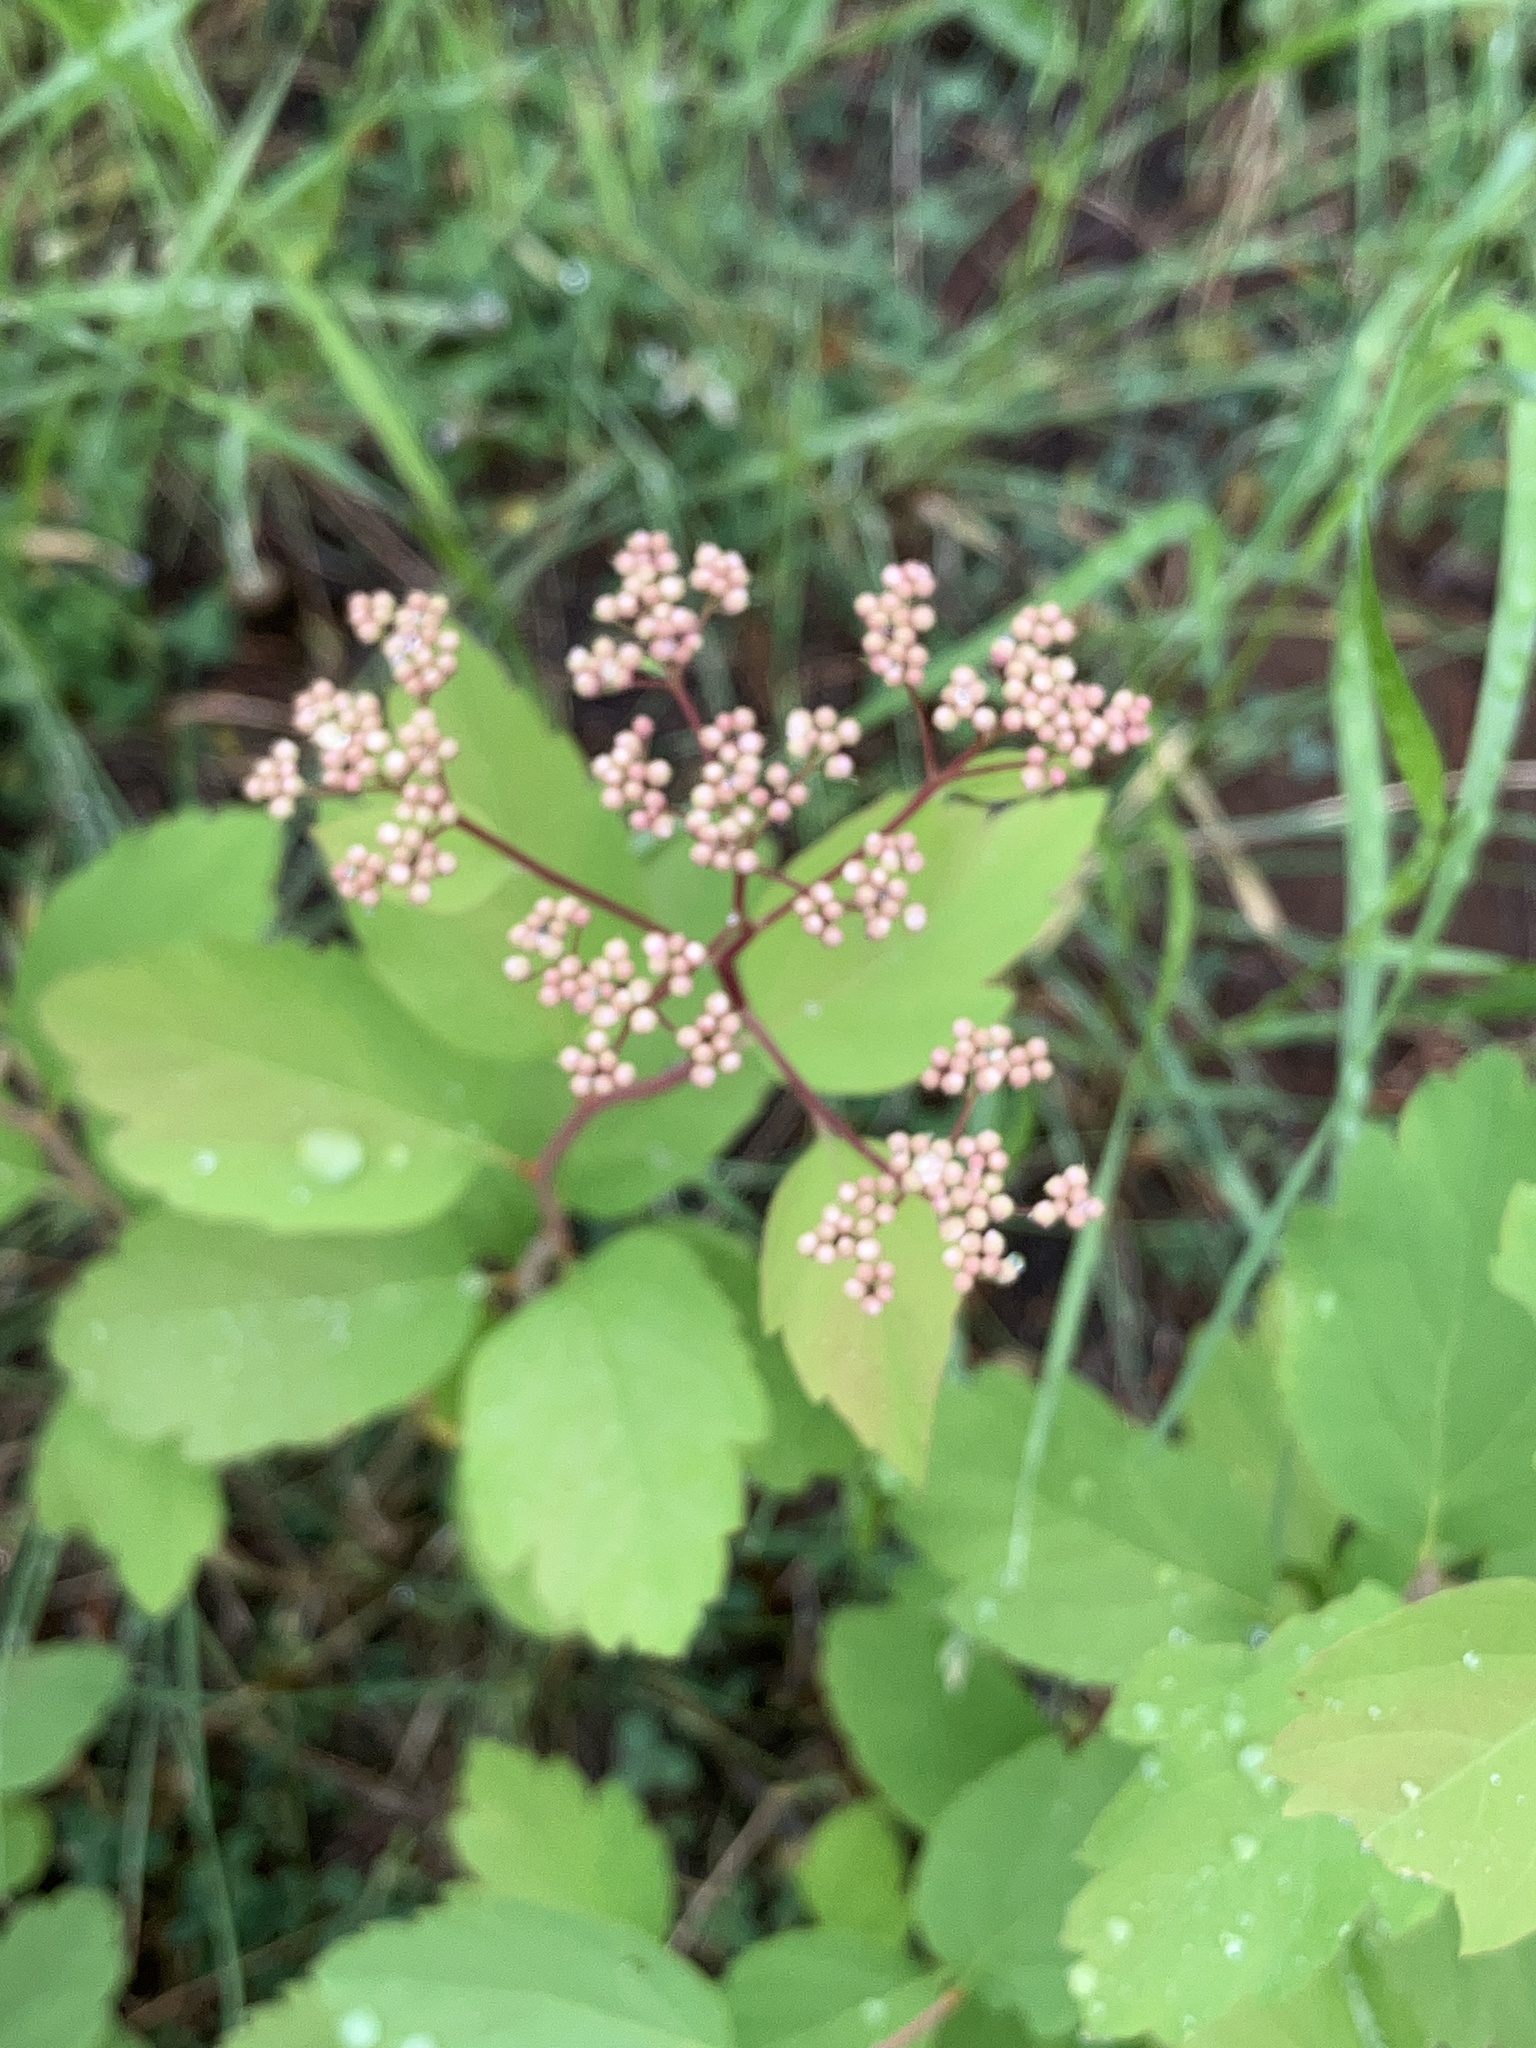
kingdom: Plantae
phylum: Tracheophyta
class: Magnoliopsida
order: Rosales
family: Rosaceae
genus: Spiraea
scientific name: Spiraea lucida
